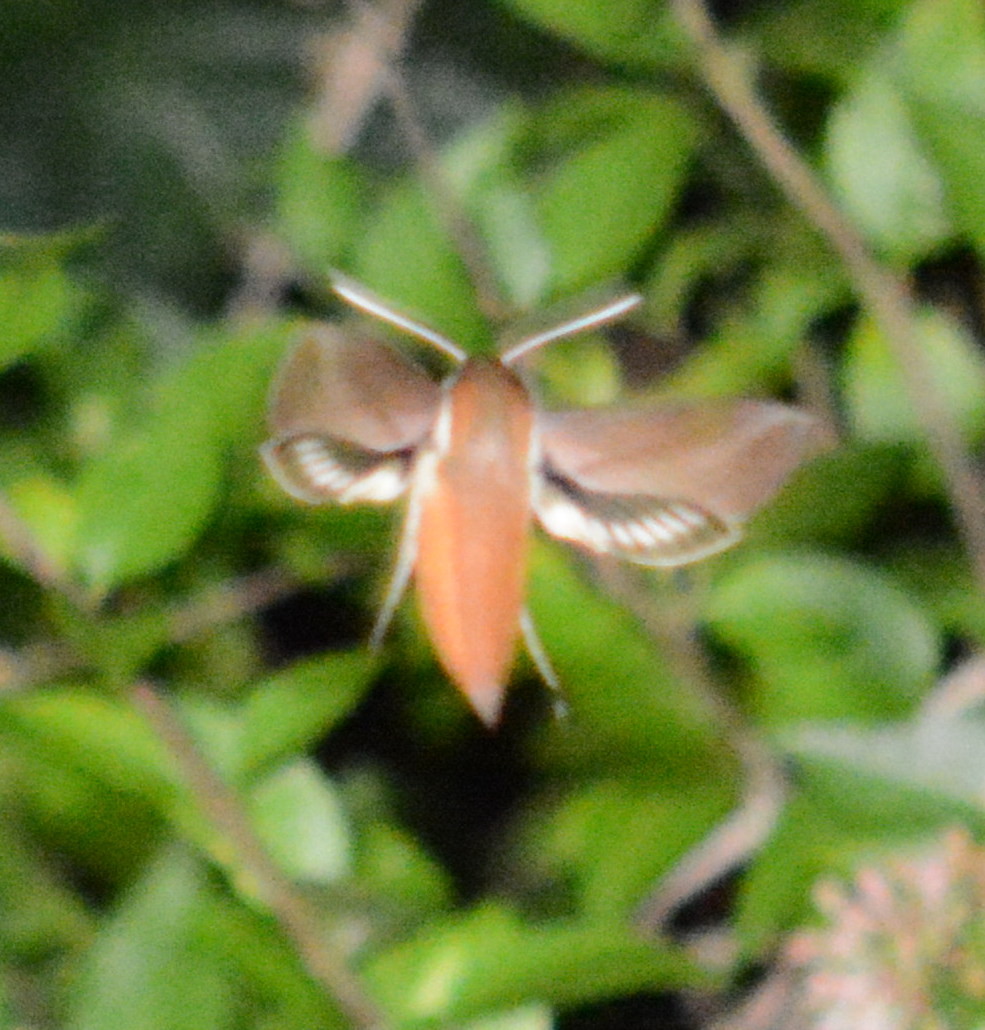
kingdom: Animalia
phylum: Arthropoda
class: Insecta
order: Lepidoptera
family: Sphingidae
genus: Xylophanes
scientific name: Xylophanes tersa
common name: Tersa sphinx
